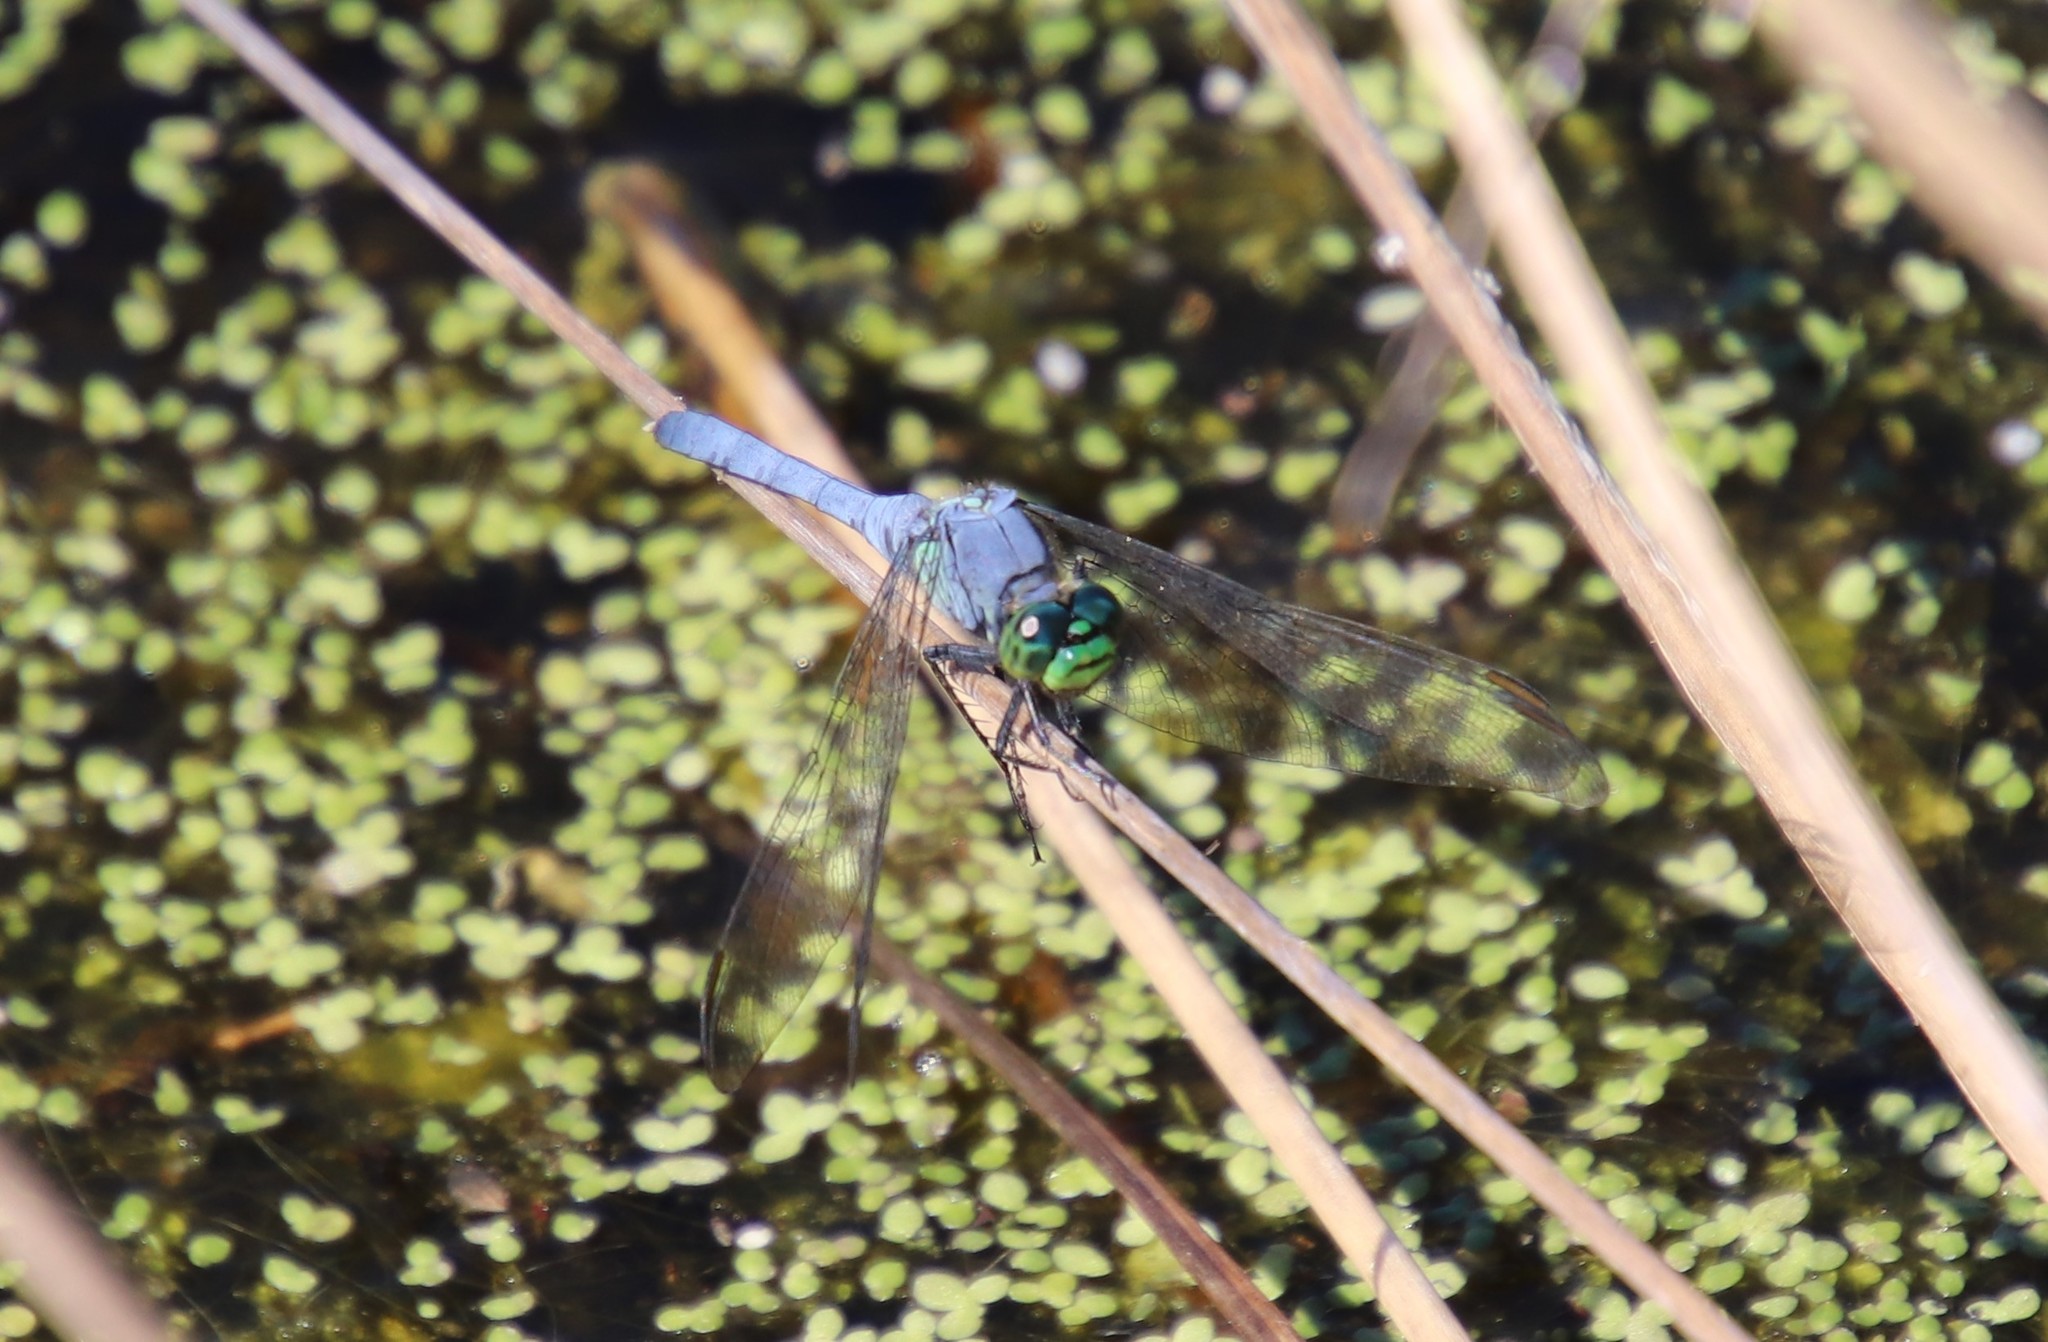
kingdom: Animalia
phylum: Arthropoda
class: Insecta
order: Odonata
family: Libellulidae
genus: Erythemis
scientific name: Erythemis simplicicollis
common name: Eastern pondhawk
